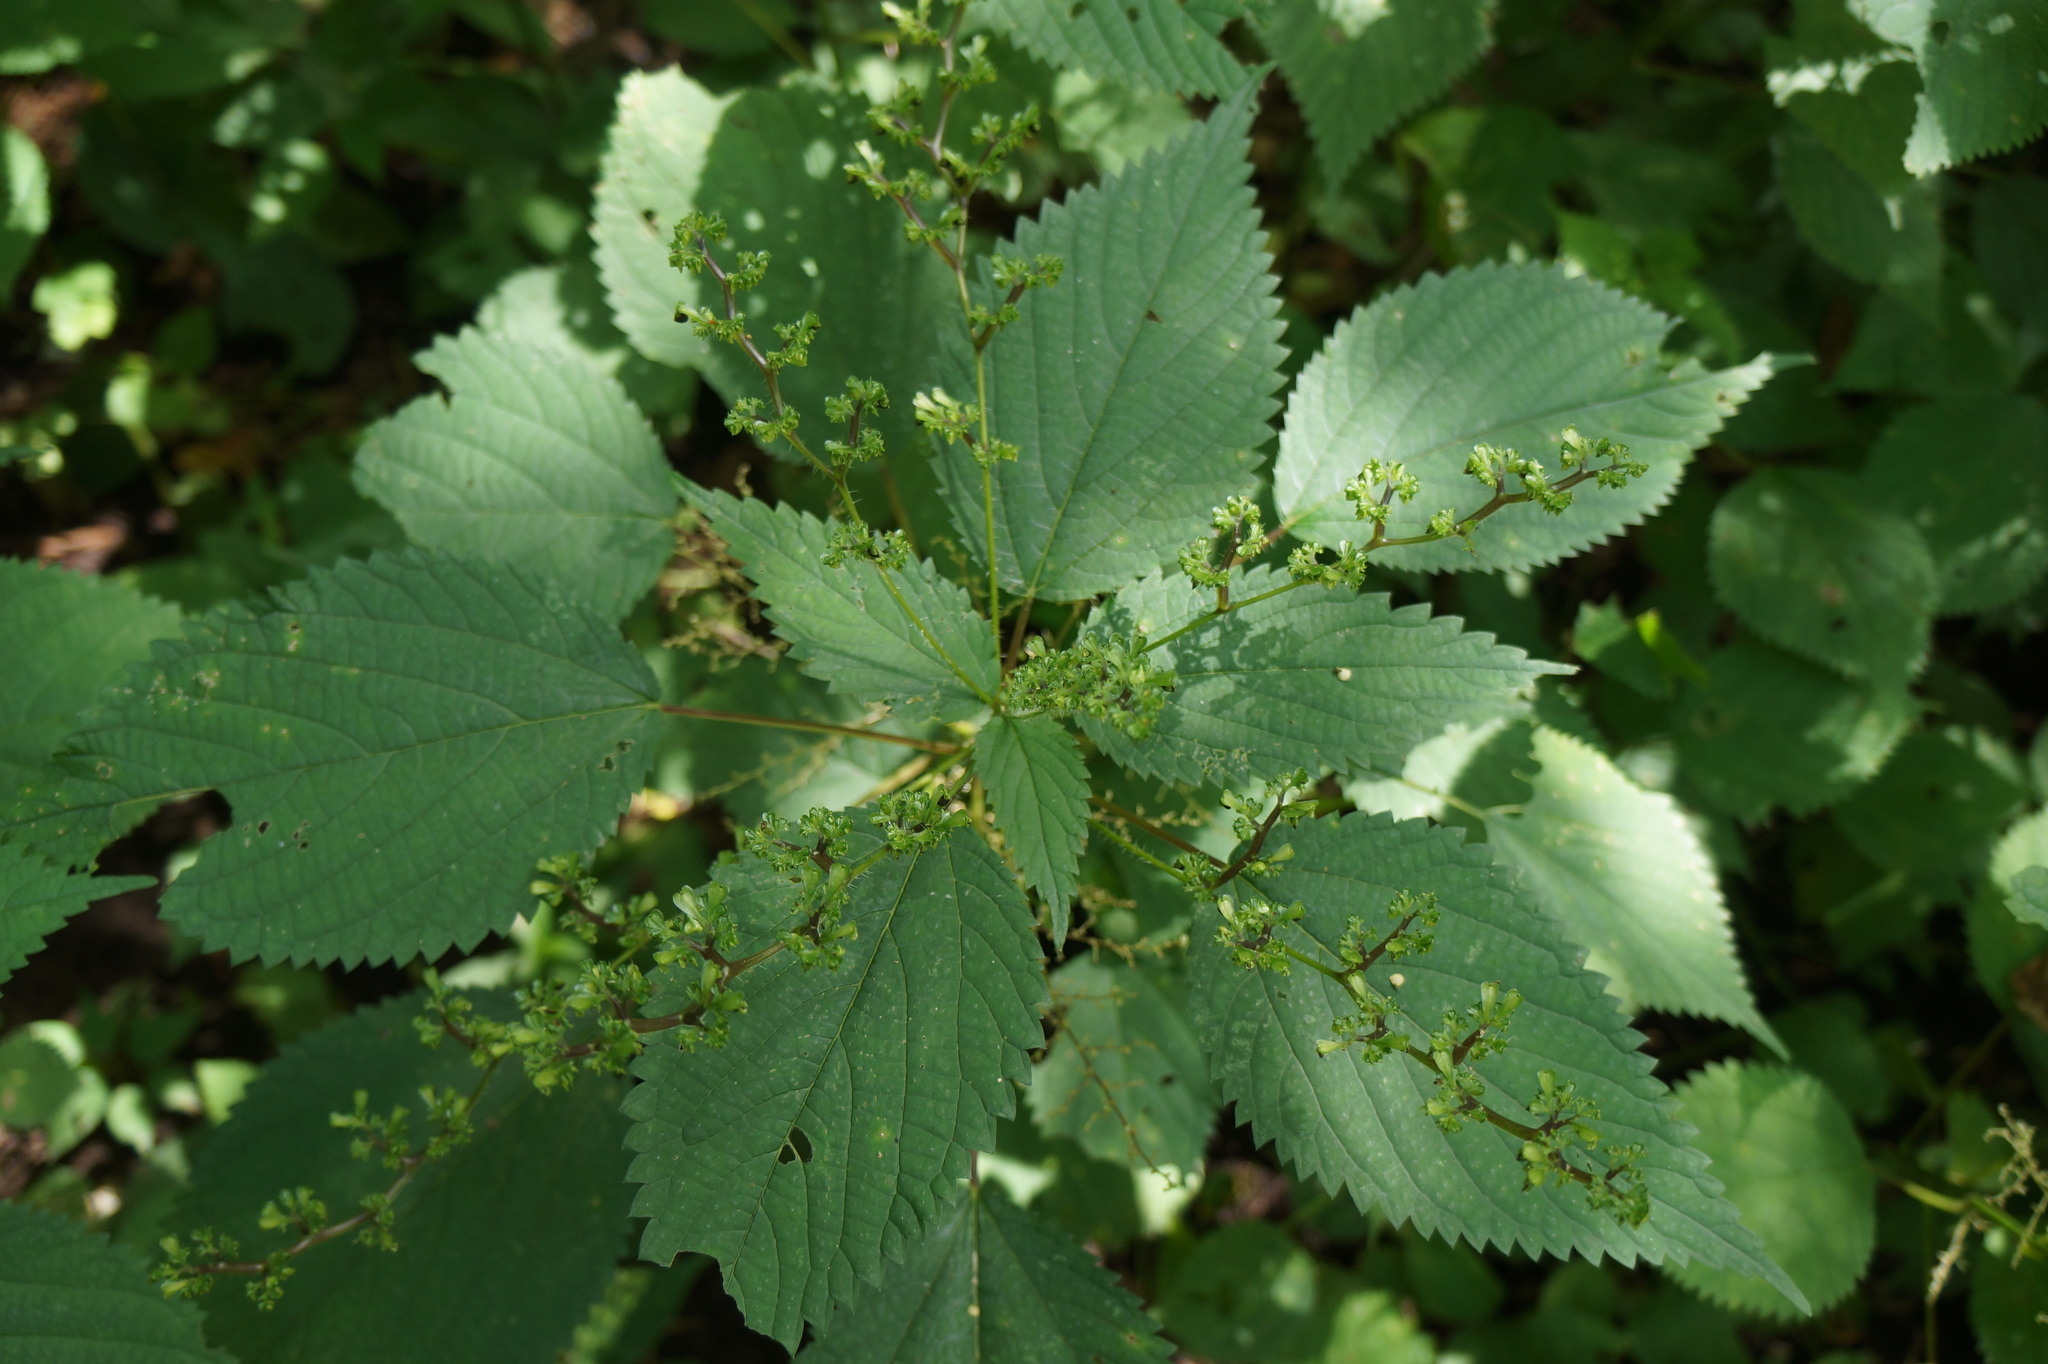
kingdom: Plantae
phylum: Tracheophyta
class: Magnoliopsida
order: Rosales
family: Urticaceae
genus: Laportea
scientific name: Laportea canadensis
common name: Canada nettle
